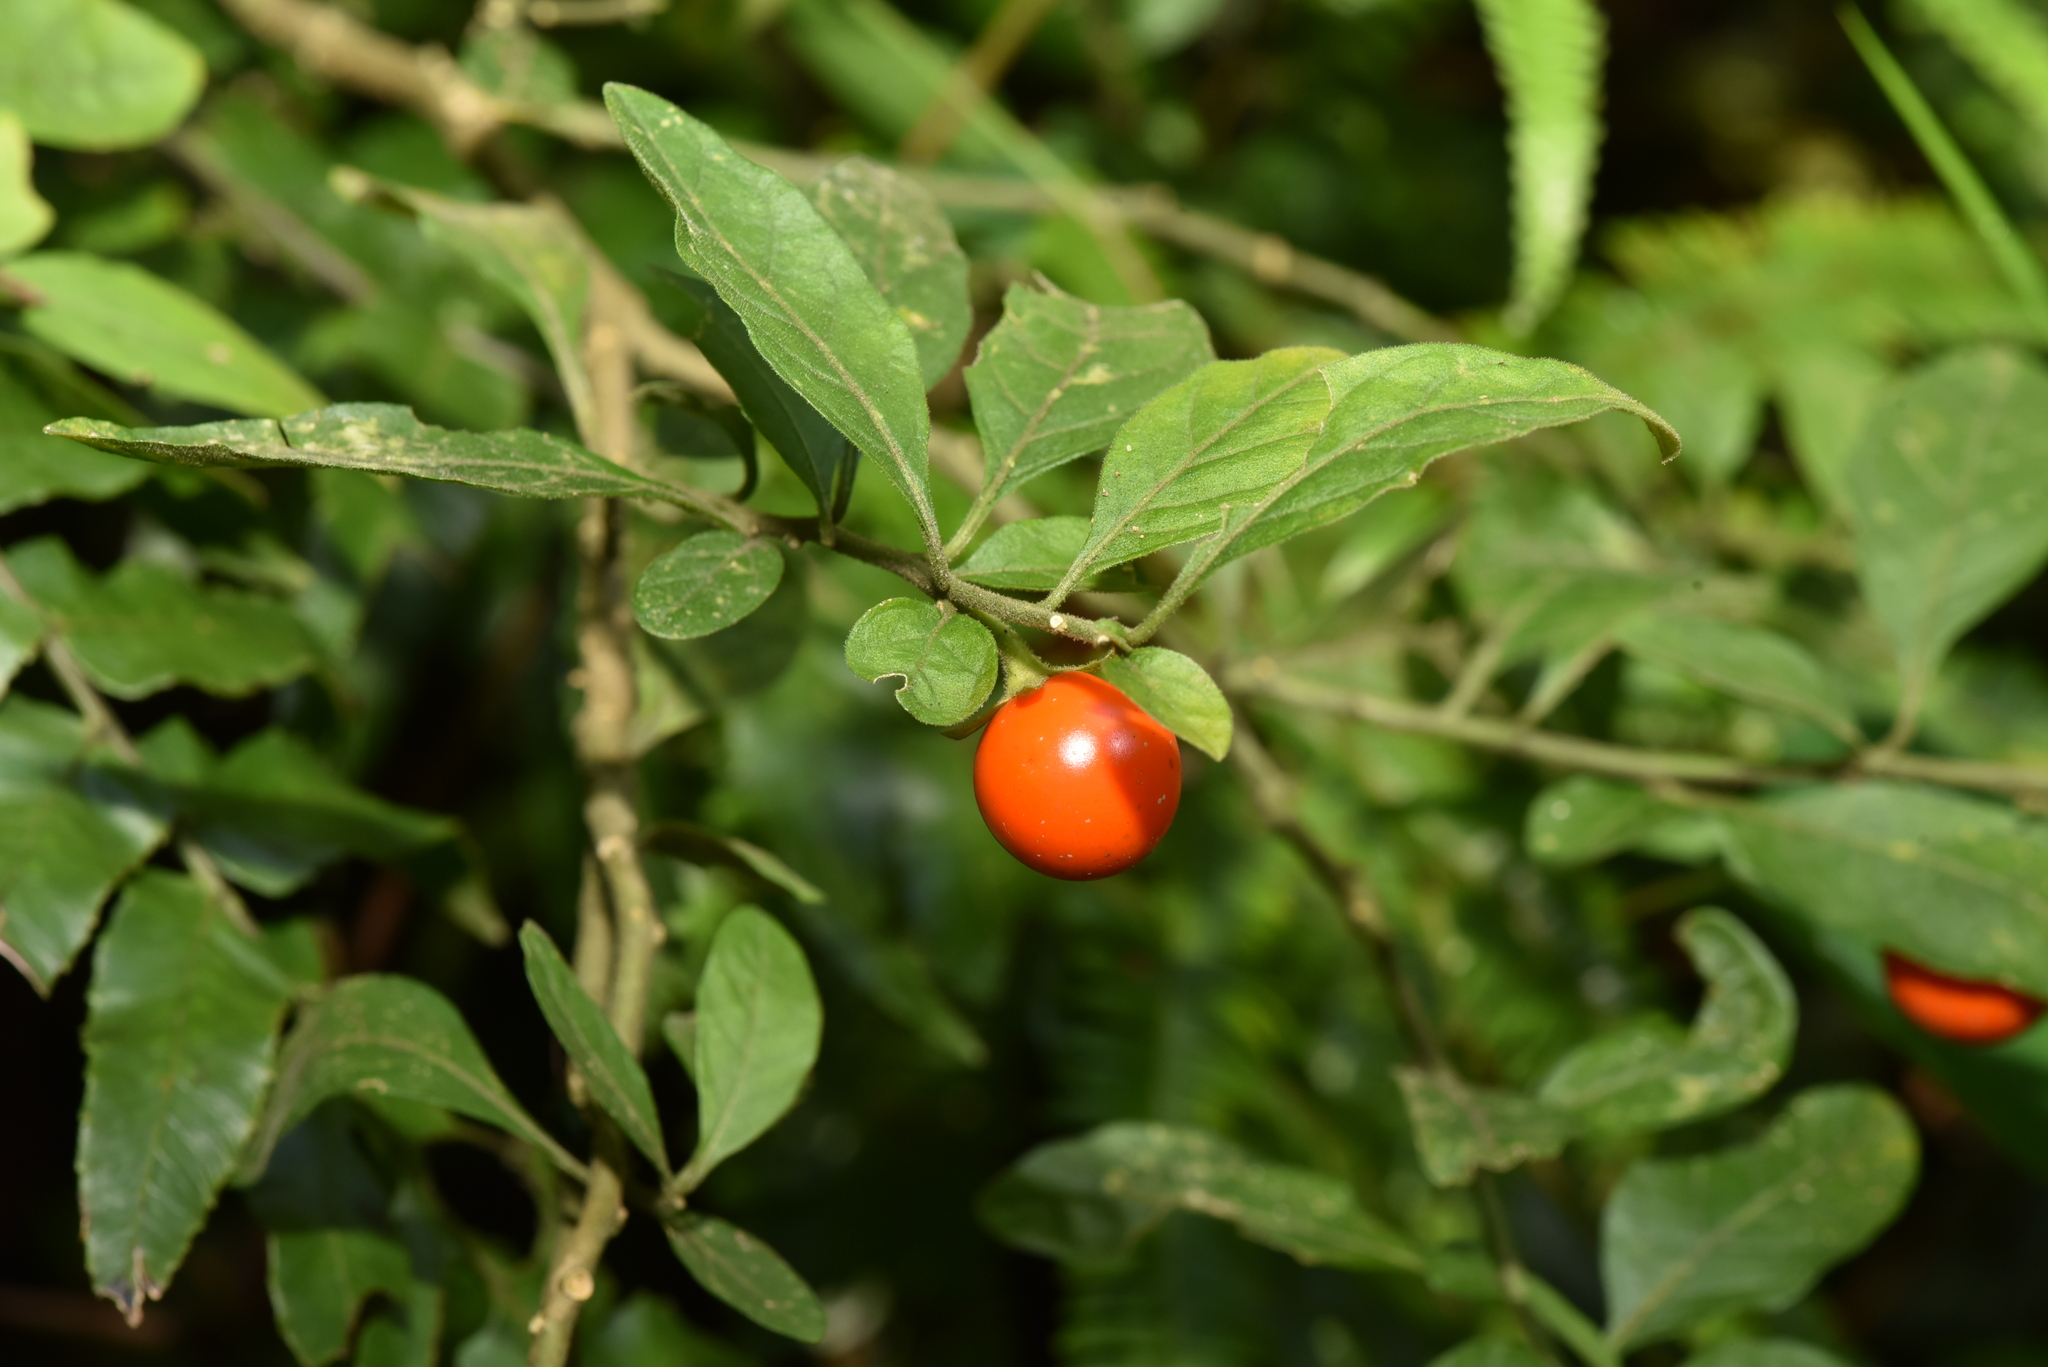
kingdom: Plantae
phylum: Tracheophyta
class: Magnoliopsida
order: Solanales
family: Solanaceae
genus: Solanum
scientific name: Solanum pseudocapsicum
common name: Jerusalem cherry
